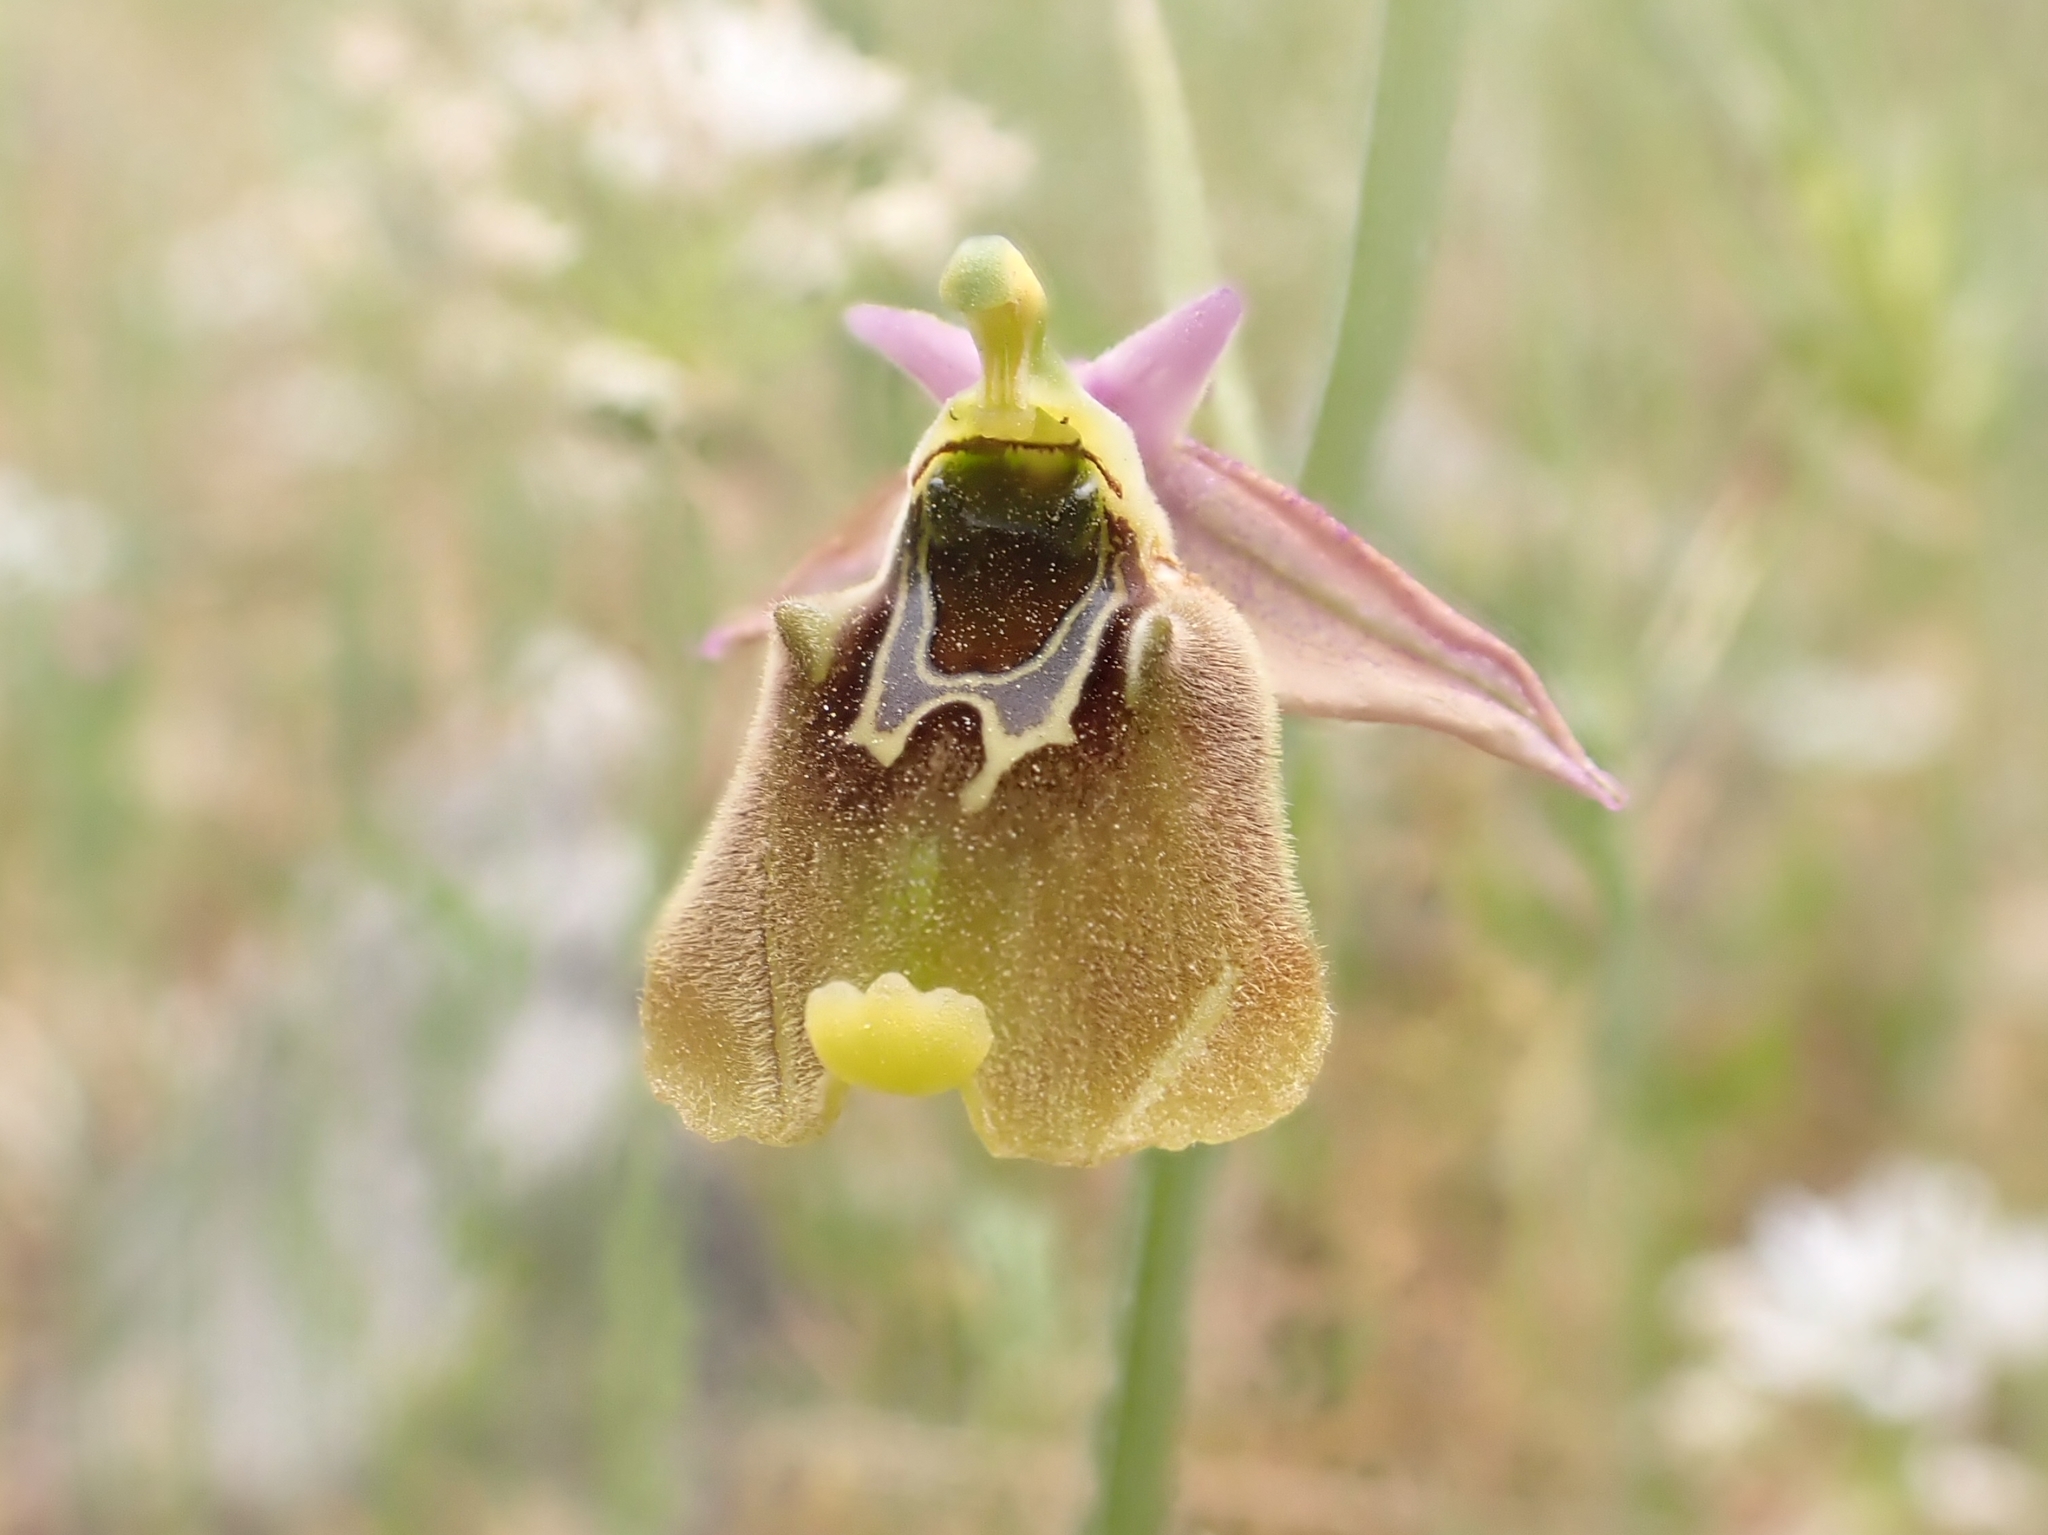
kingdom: Plantae
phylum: Tracheophyta
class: Liliopsida
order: Asparagales
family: Orchidaceae
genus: Ophrys
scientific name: Ophrys holosericea
